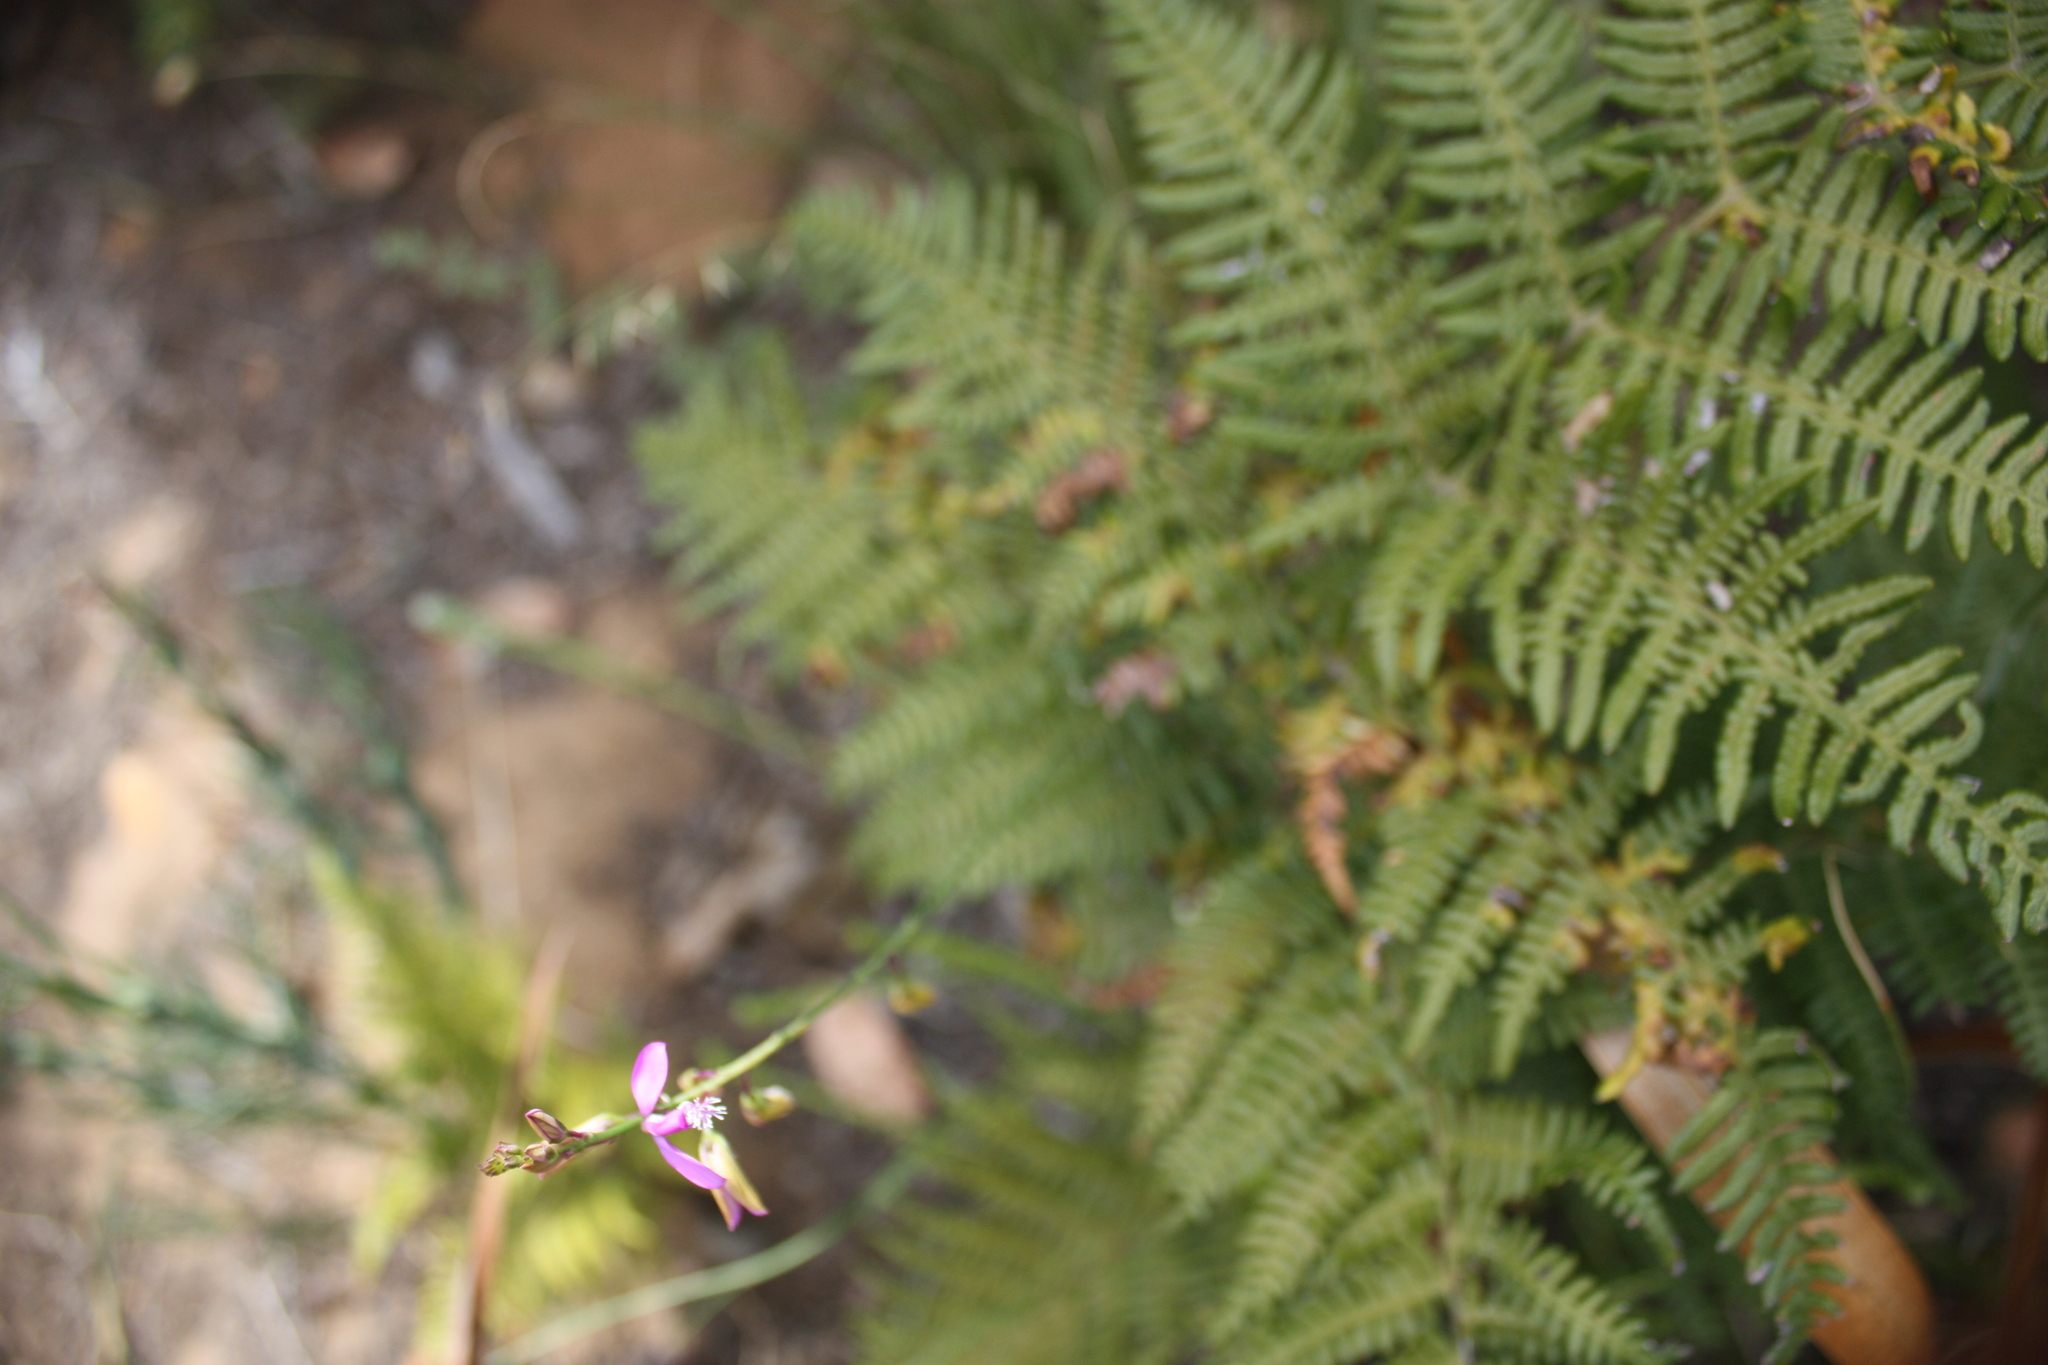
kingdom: Plantae
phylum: Tracheophyta
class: Magnoliopsida
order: Fabales
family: Polygalaceae
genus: Polygala
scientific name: Polygala garcini
